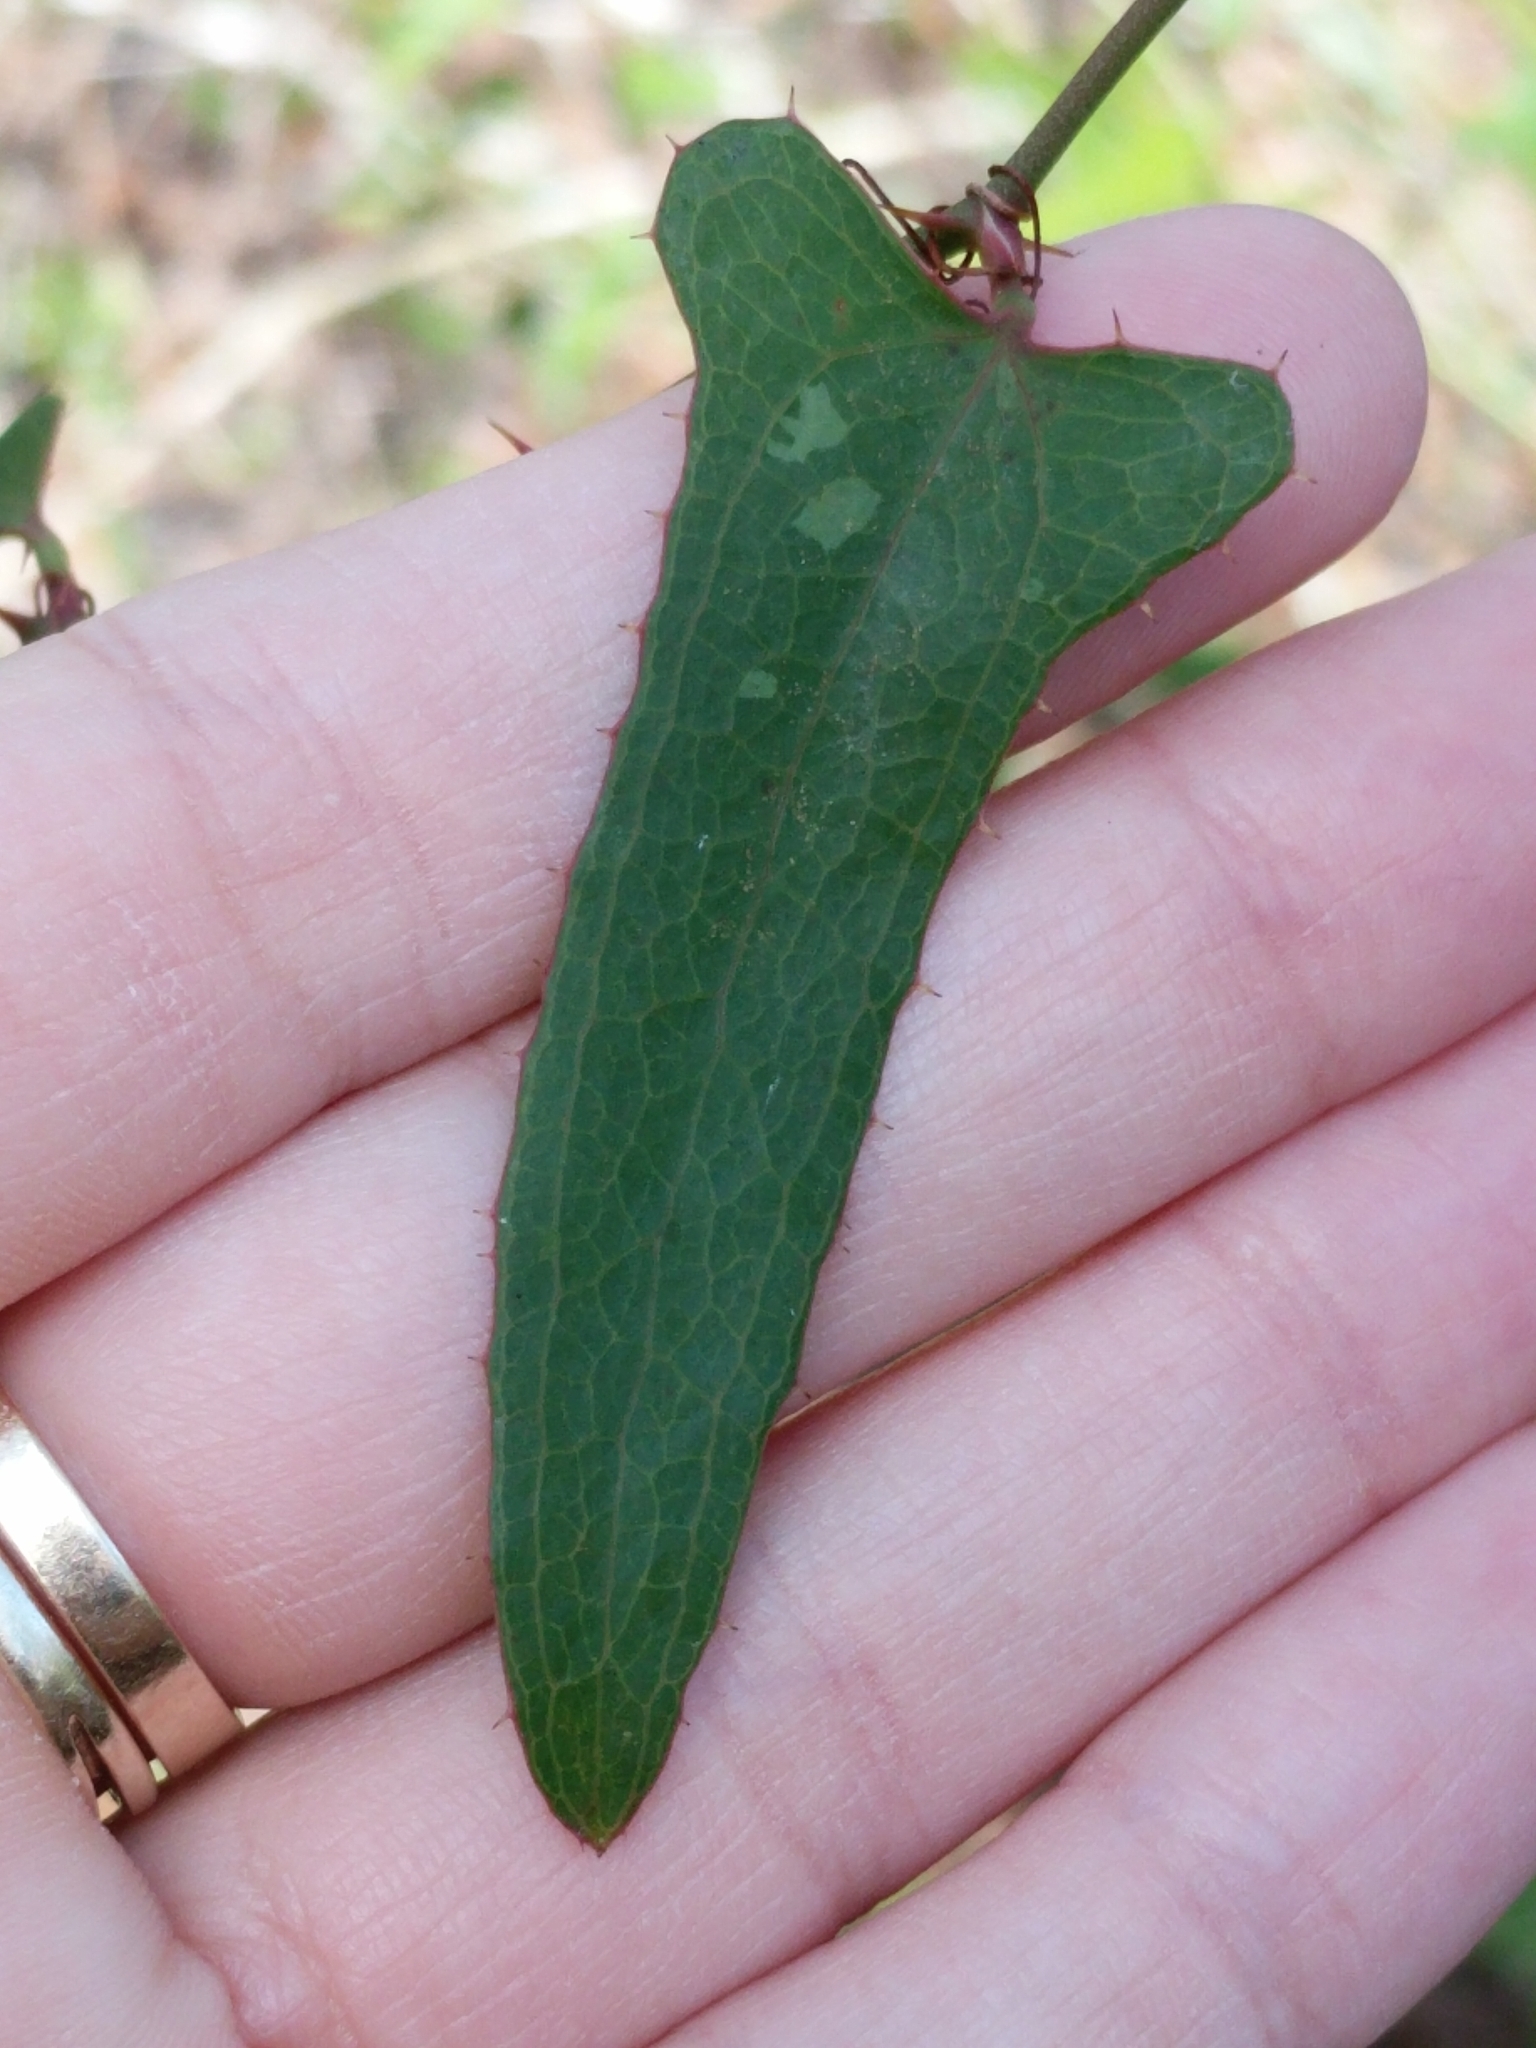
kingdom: Plantae
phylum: Tracheophyta
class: Liliopsida
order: Liliales
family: Smilacaceae
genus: Smilax
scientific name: Smilax bona-nox
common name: Catbrier
